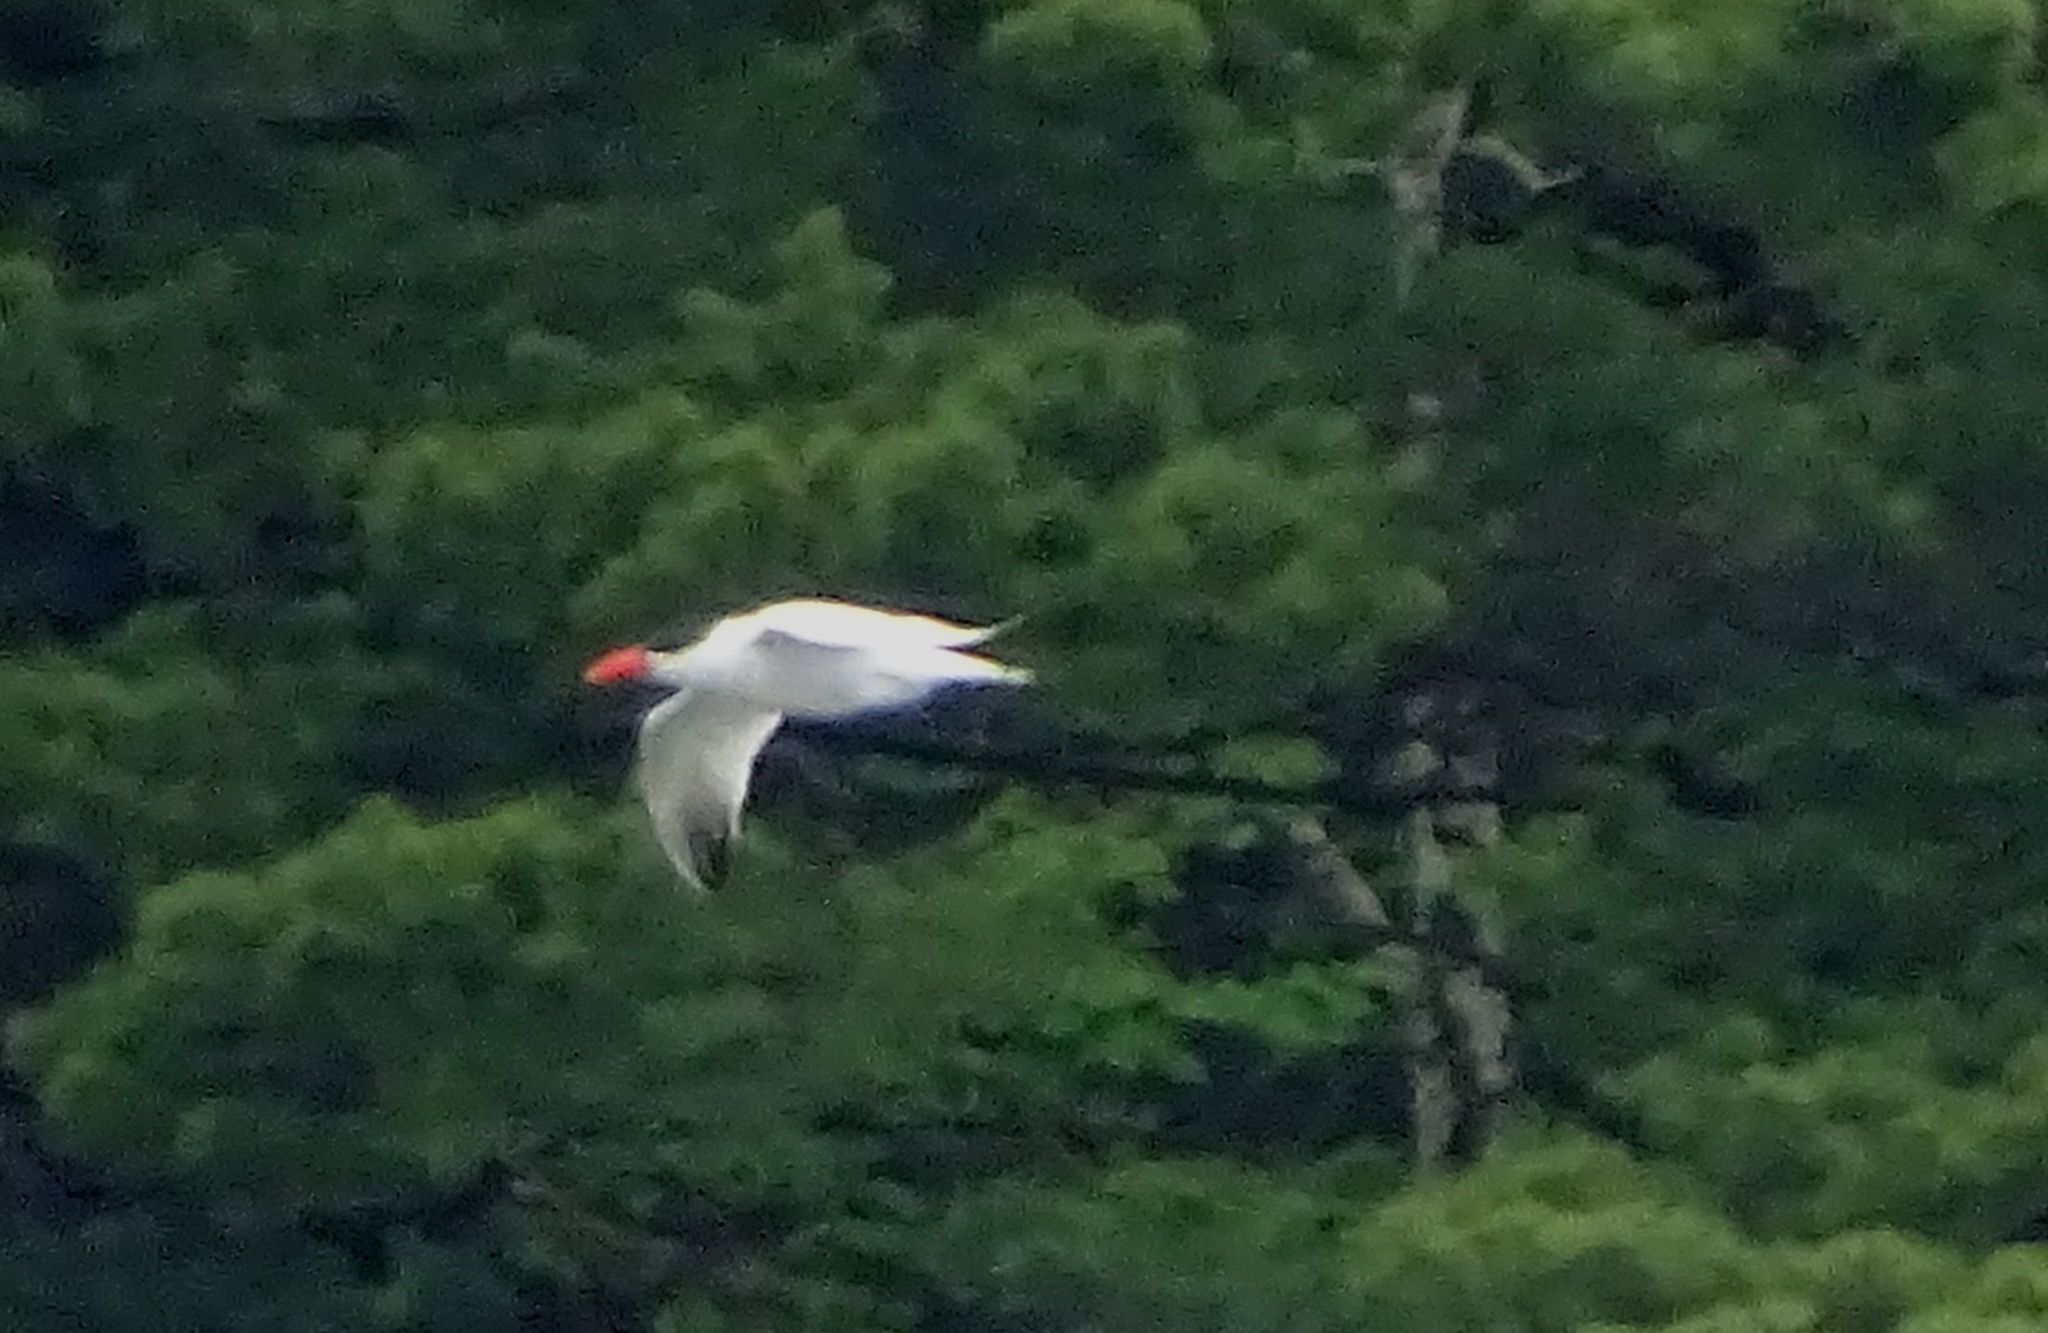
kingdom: Animalia
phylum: Chordata
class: Aves
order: Charadriiformes
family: Laridae
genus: Hydroprogne
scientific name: Hydroprogne caspia
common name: Caspian tern
